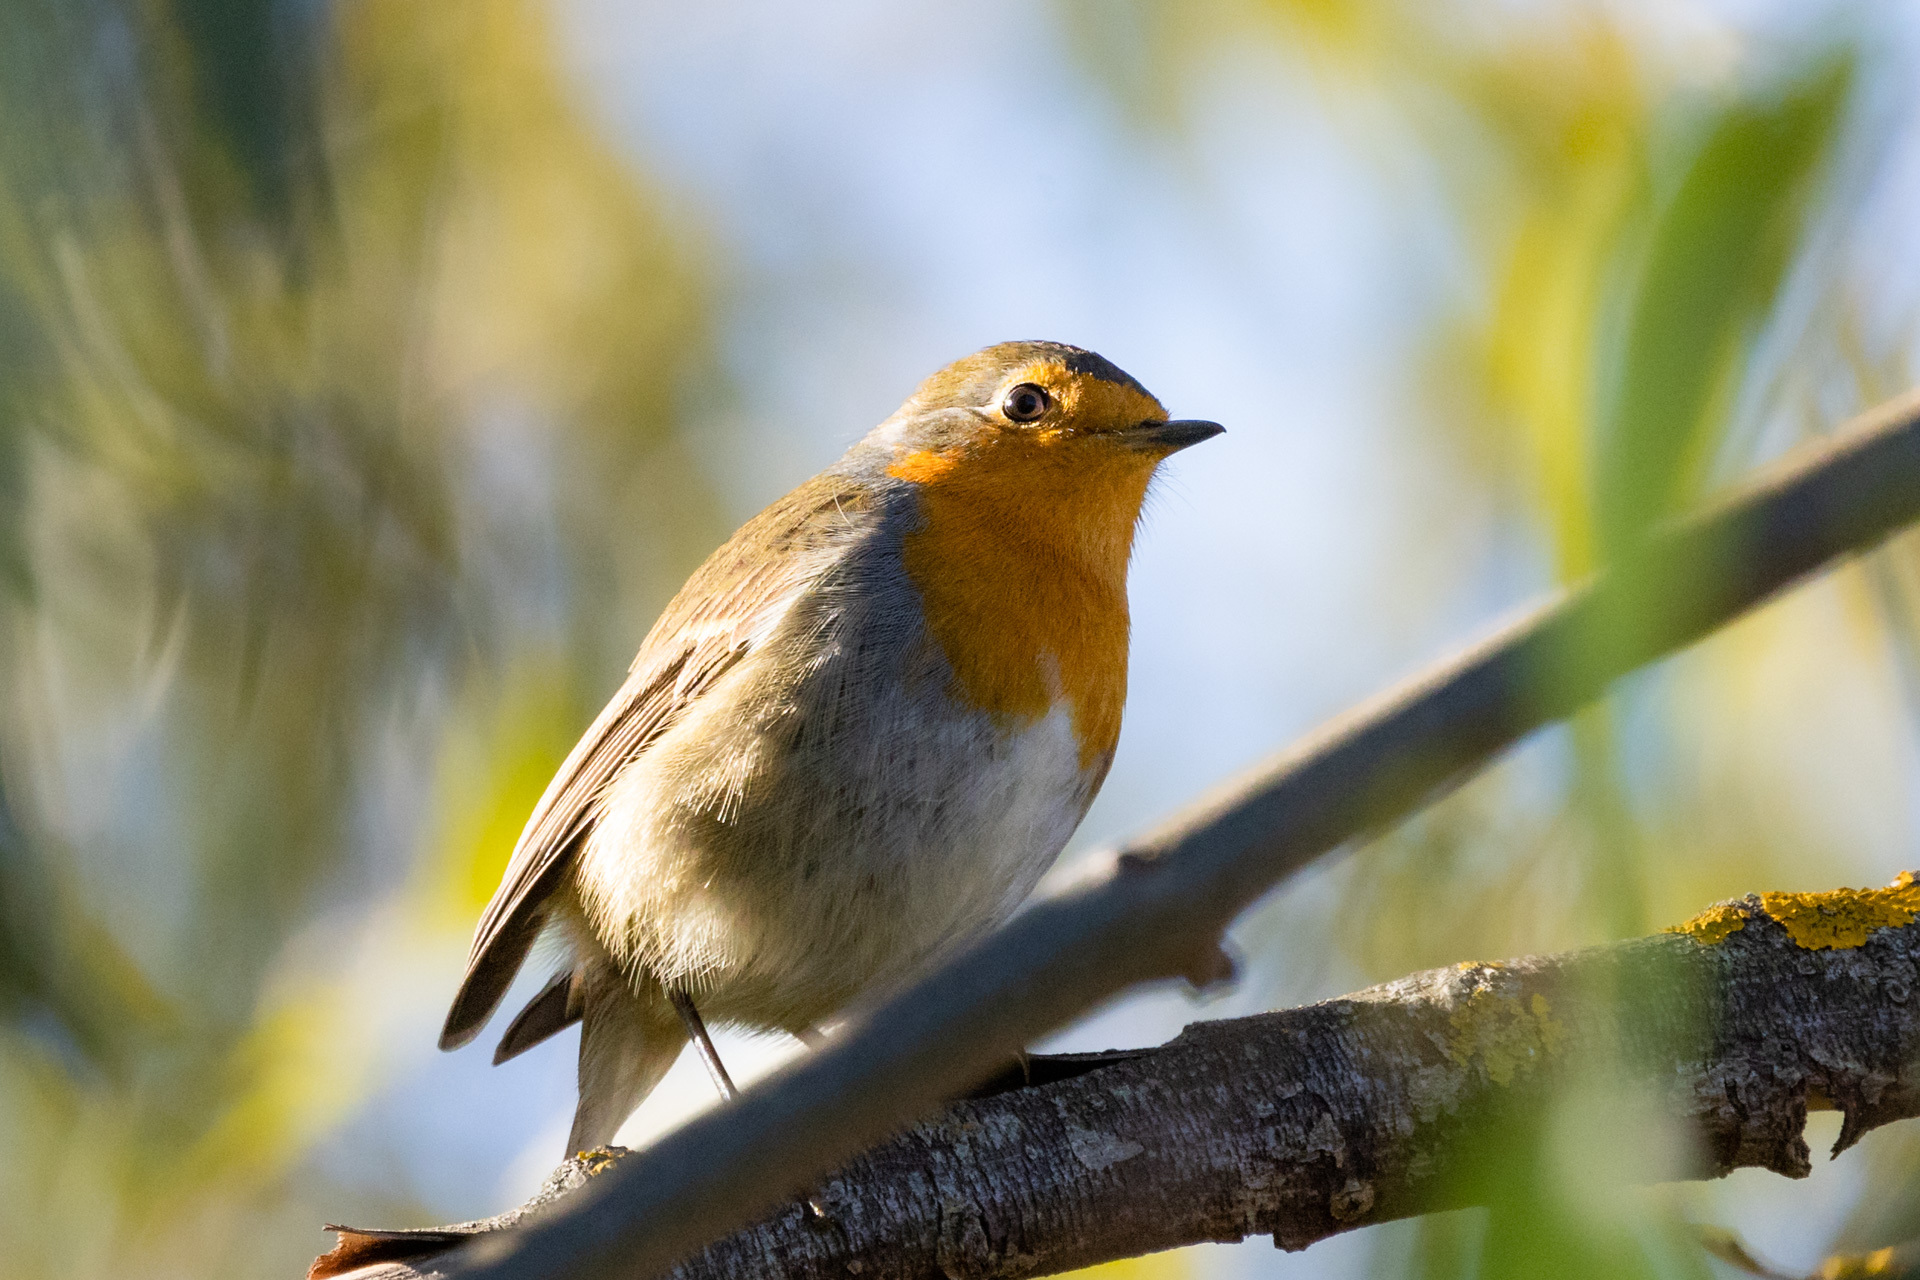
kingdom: Animalia
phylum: Chordata
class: Aves
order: Passeriformes
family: Muscicapidae
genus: Erithacus
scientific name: Erithacus rubecula
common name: European robin
